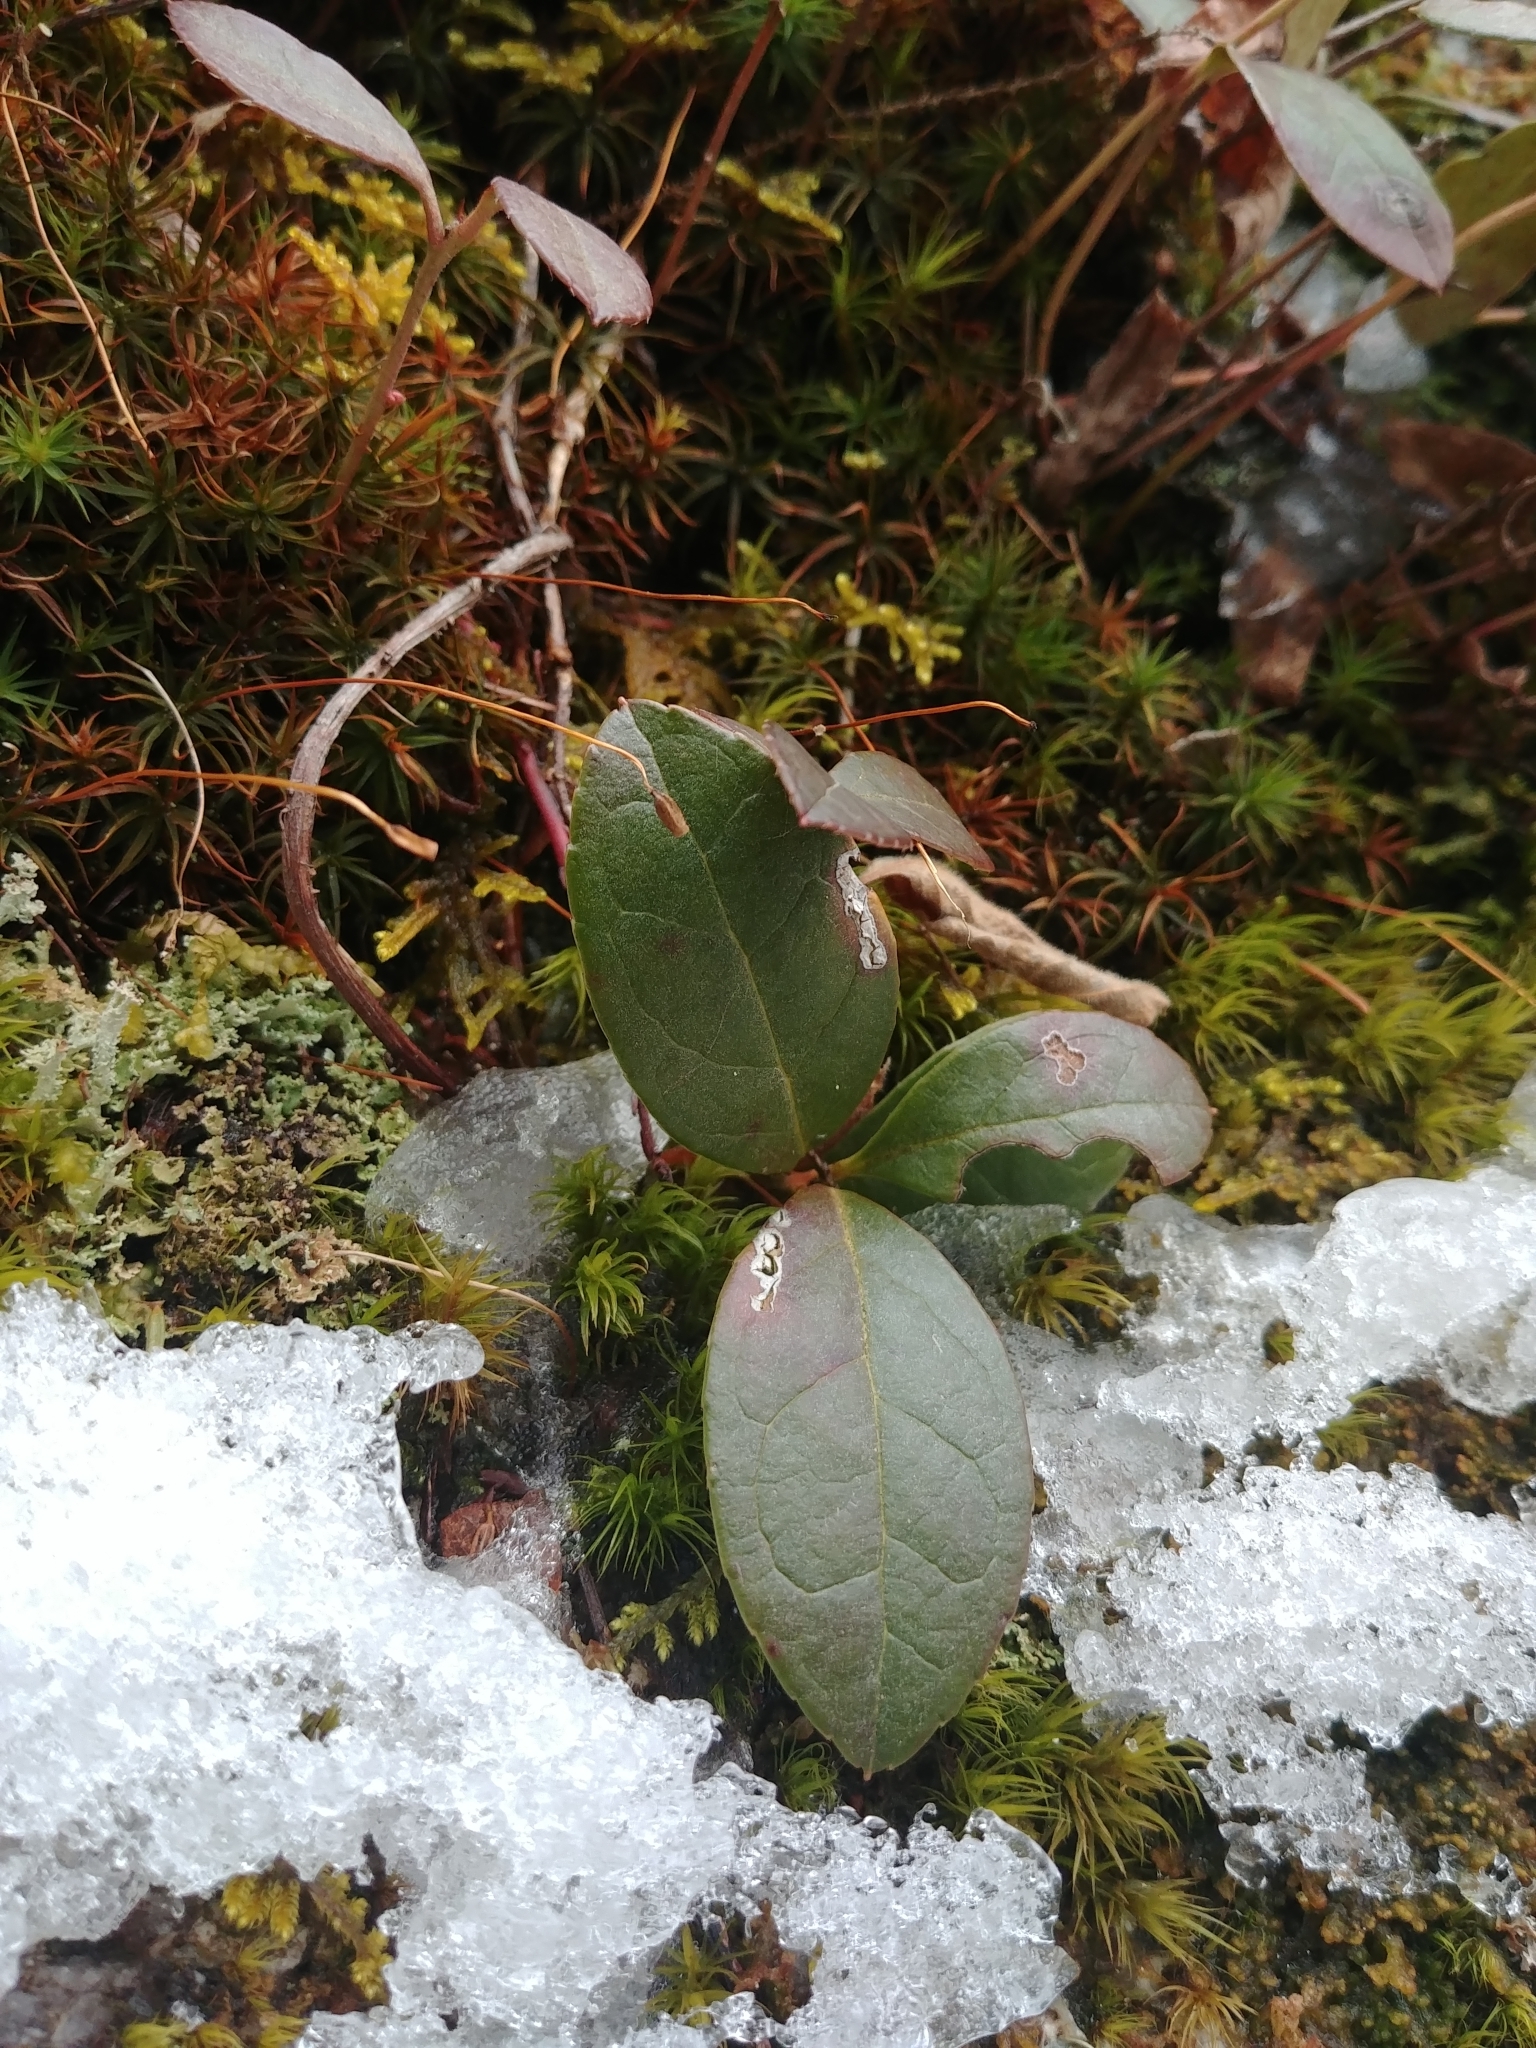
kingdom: Plantae
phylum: Tracheophyta
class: Magnoliopsida
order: Ericales
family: Ericaceae
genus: Gaultheria
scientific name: Gaultheria procumbens
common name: Checkerberry
